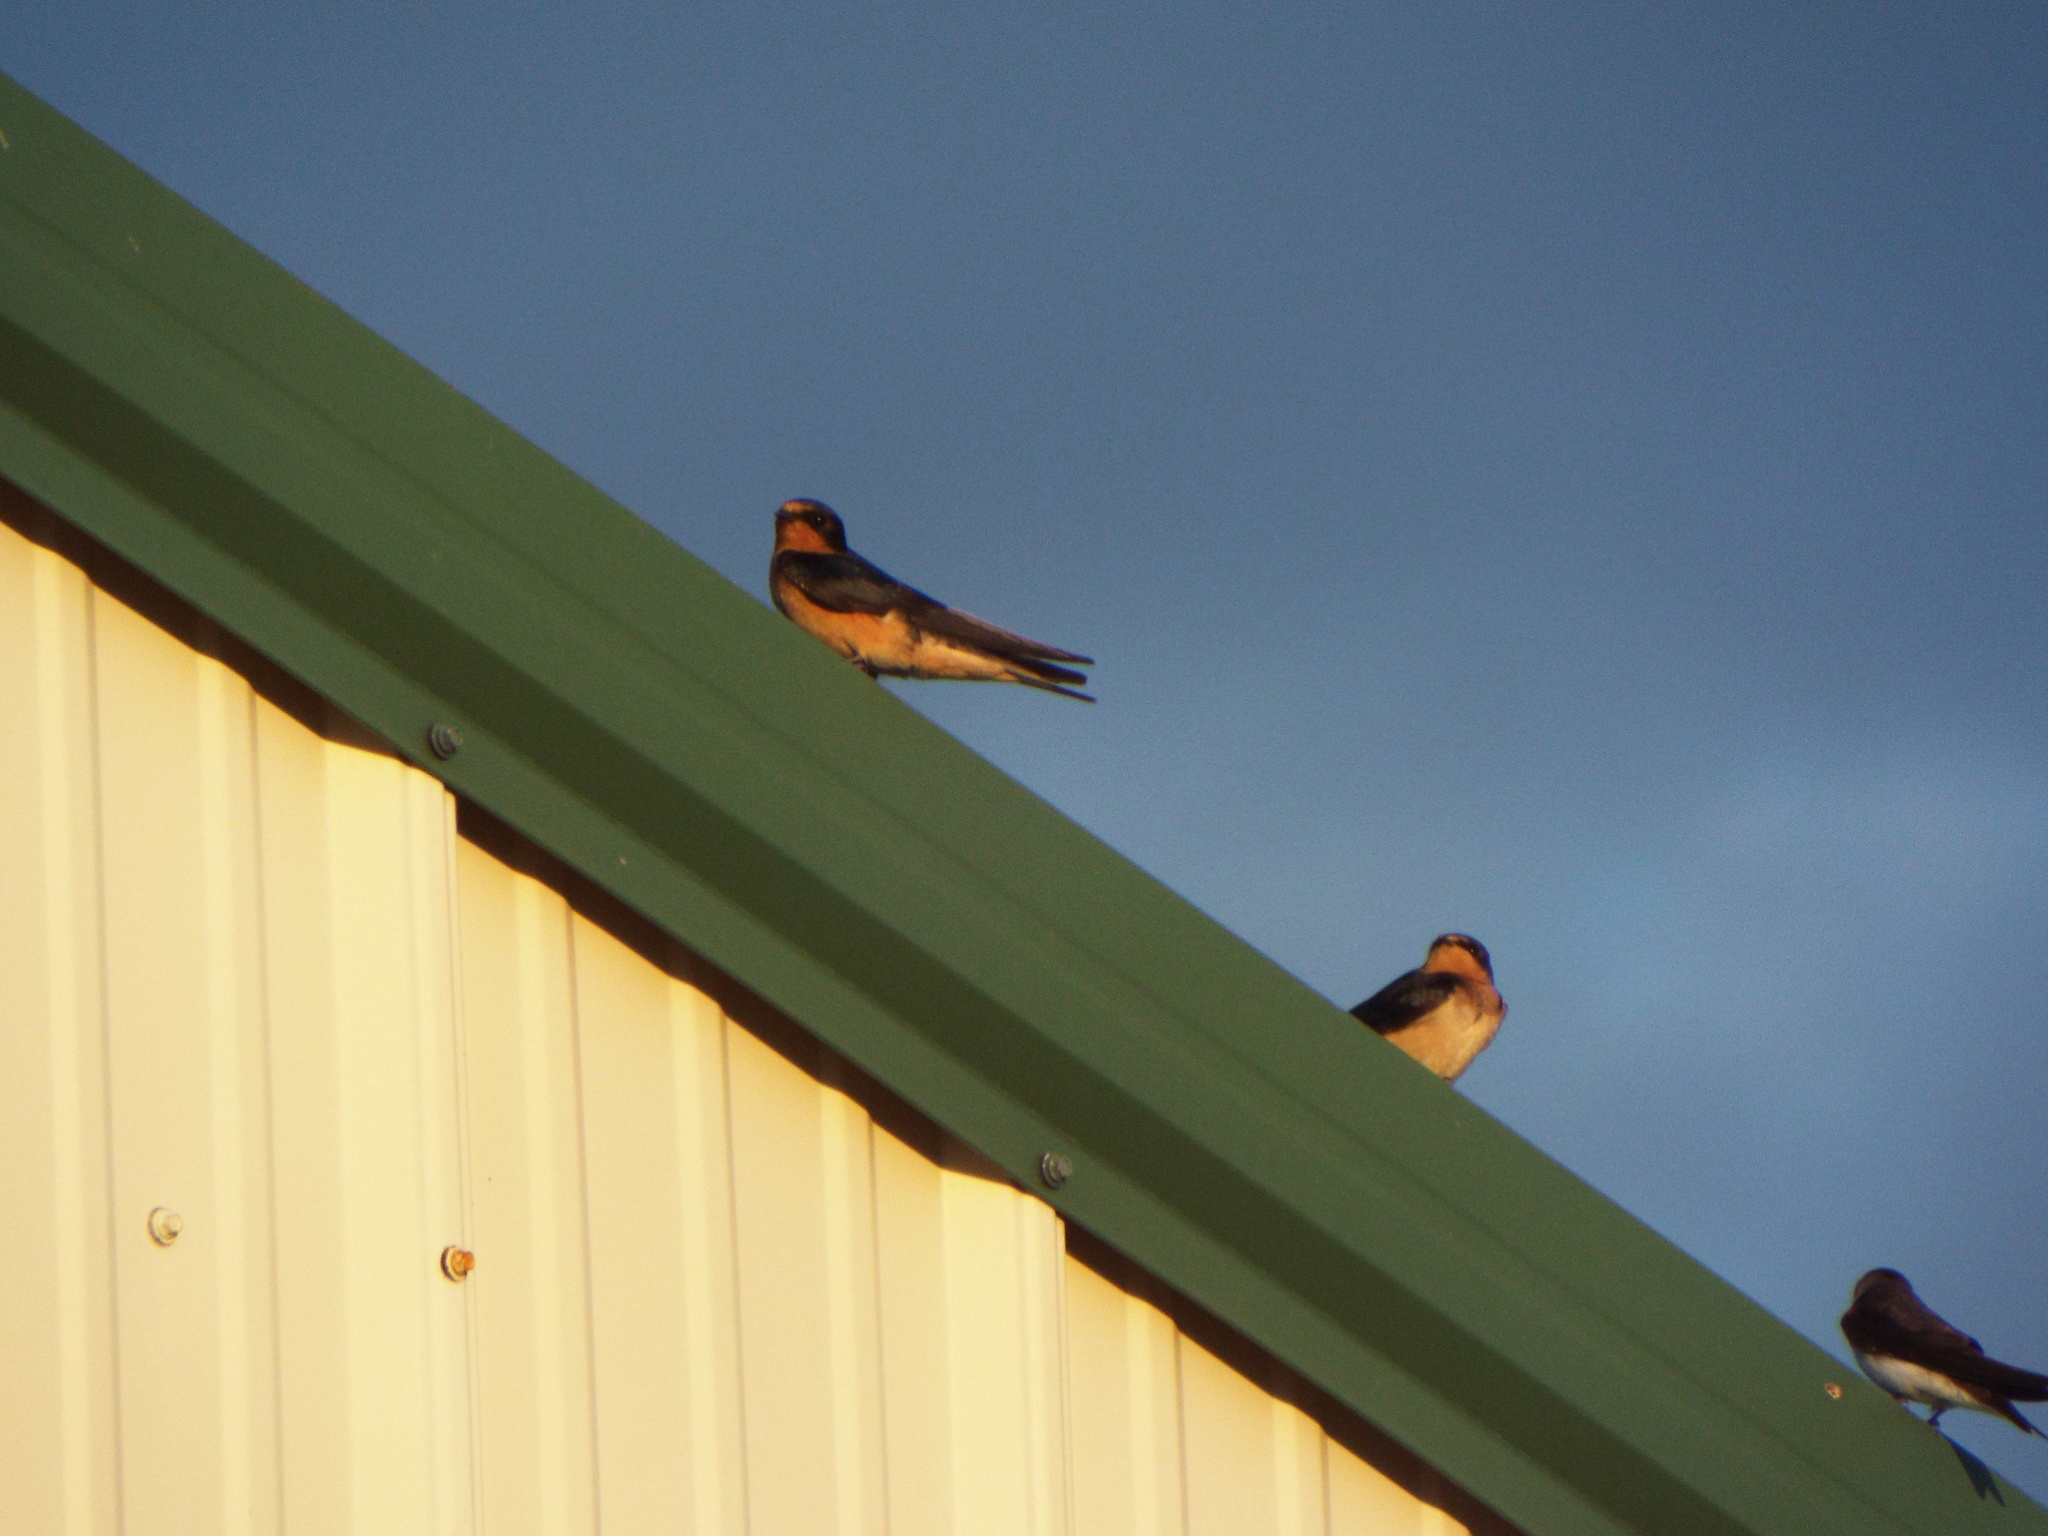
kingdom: Animalia
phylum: Chordata
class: Aves
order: Passeriformes
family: Hirundinidae
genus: Hirundo
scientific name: Hirundo rustica
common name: Barn swallow
